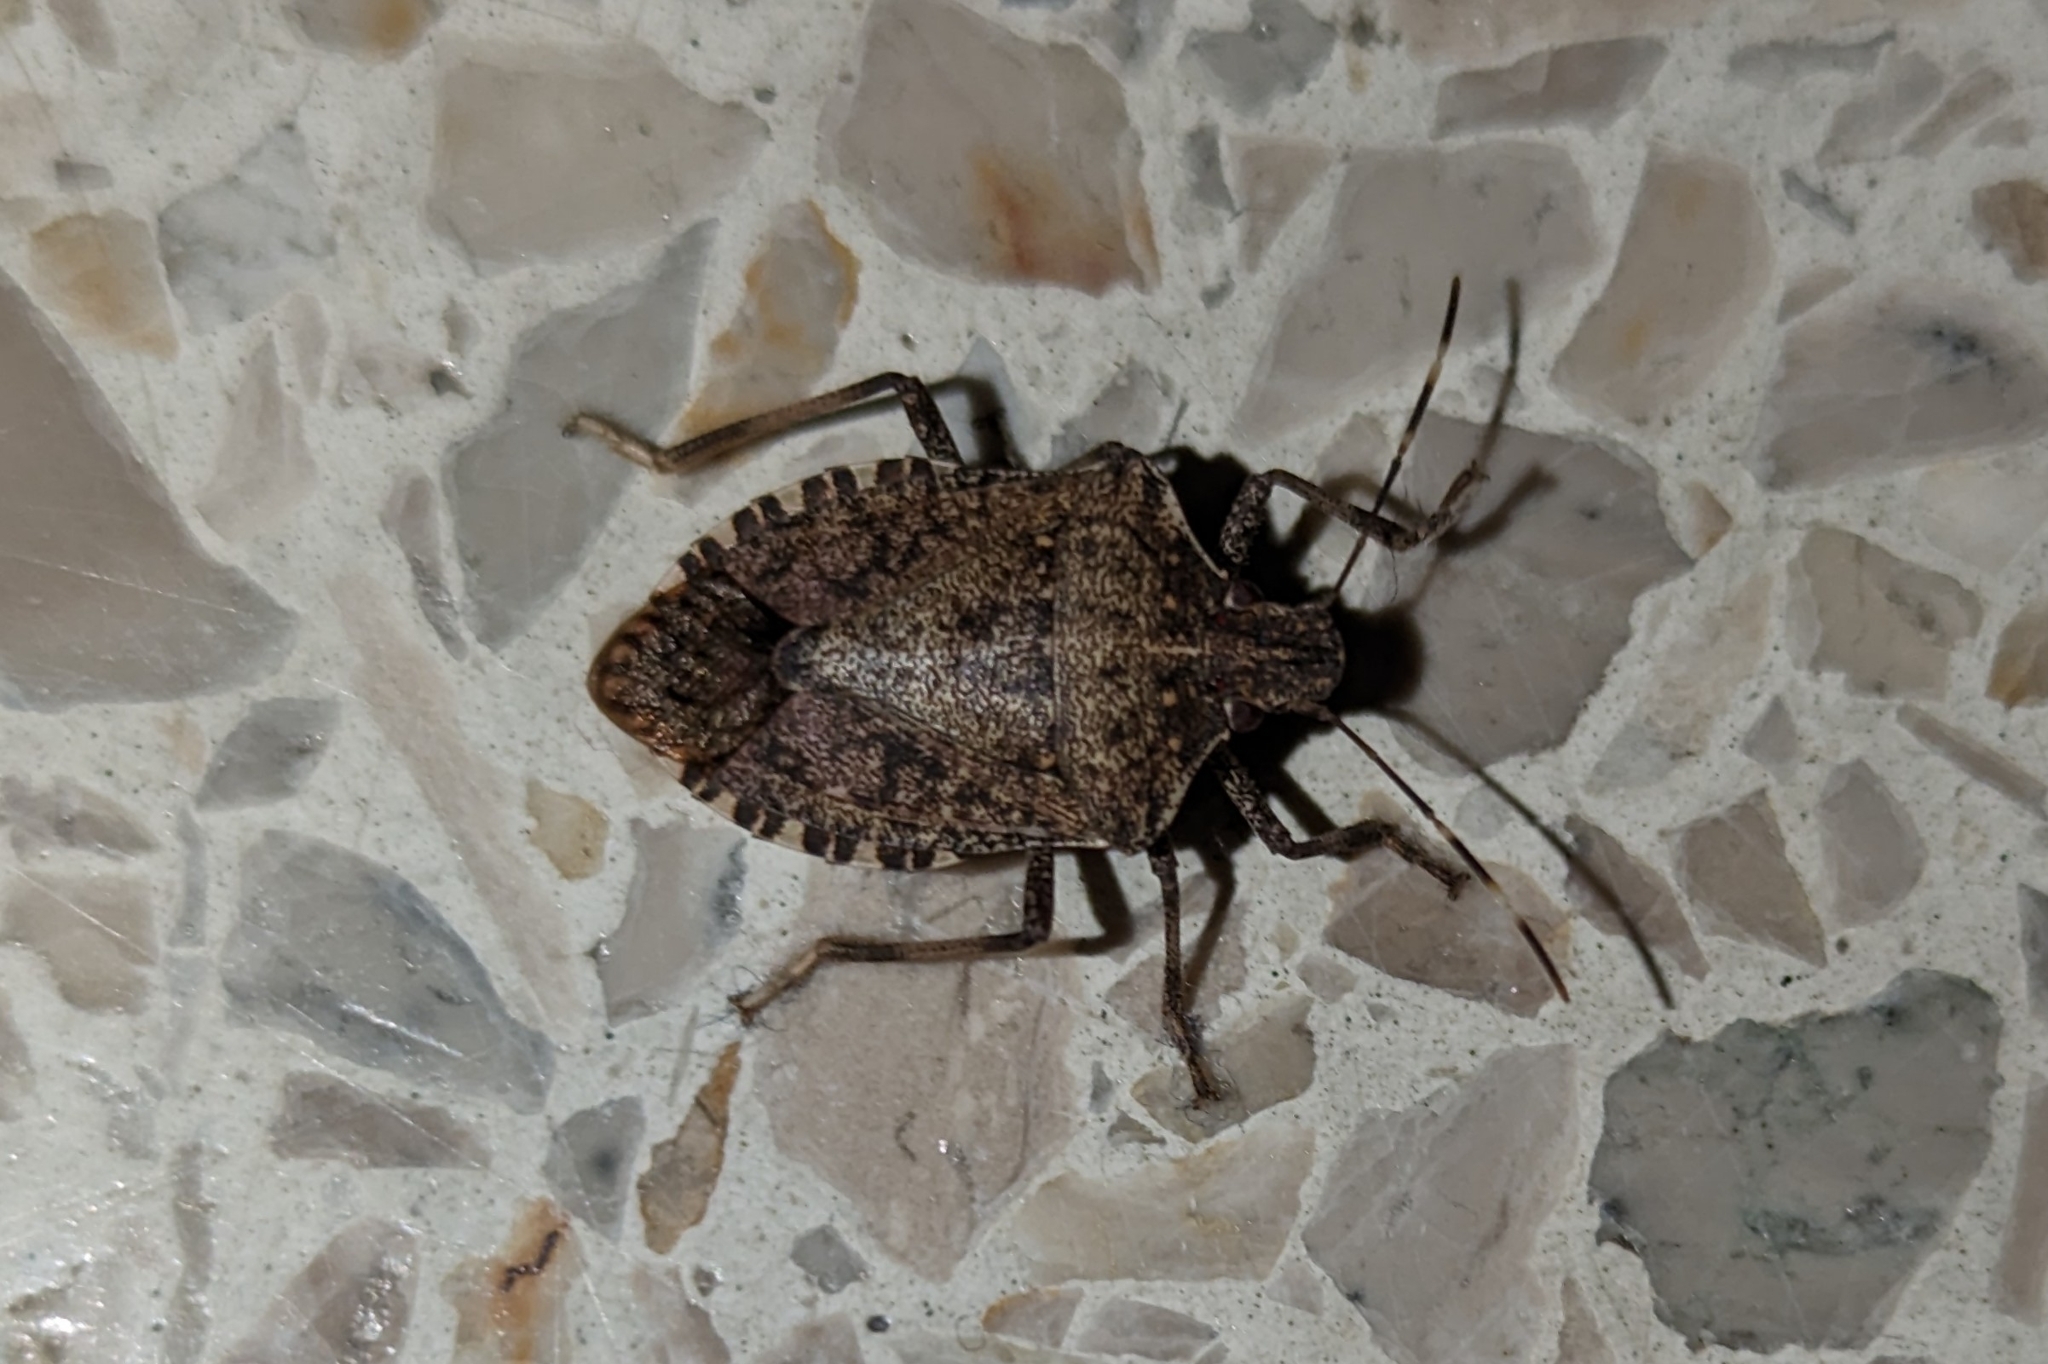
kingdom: Animalia
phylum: Arthropoda
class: Insecta
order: Hemiptera
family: Pentatomidae
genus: Halyomorpha
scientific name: Halyomorpha halys
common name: Brown marmorated stink bug
